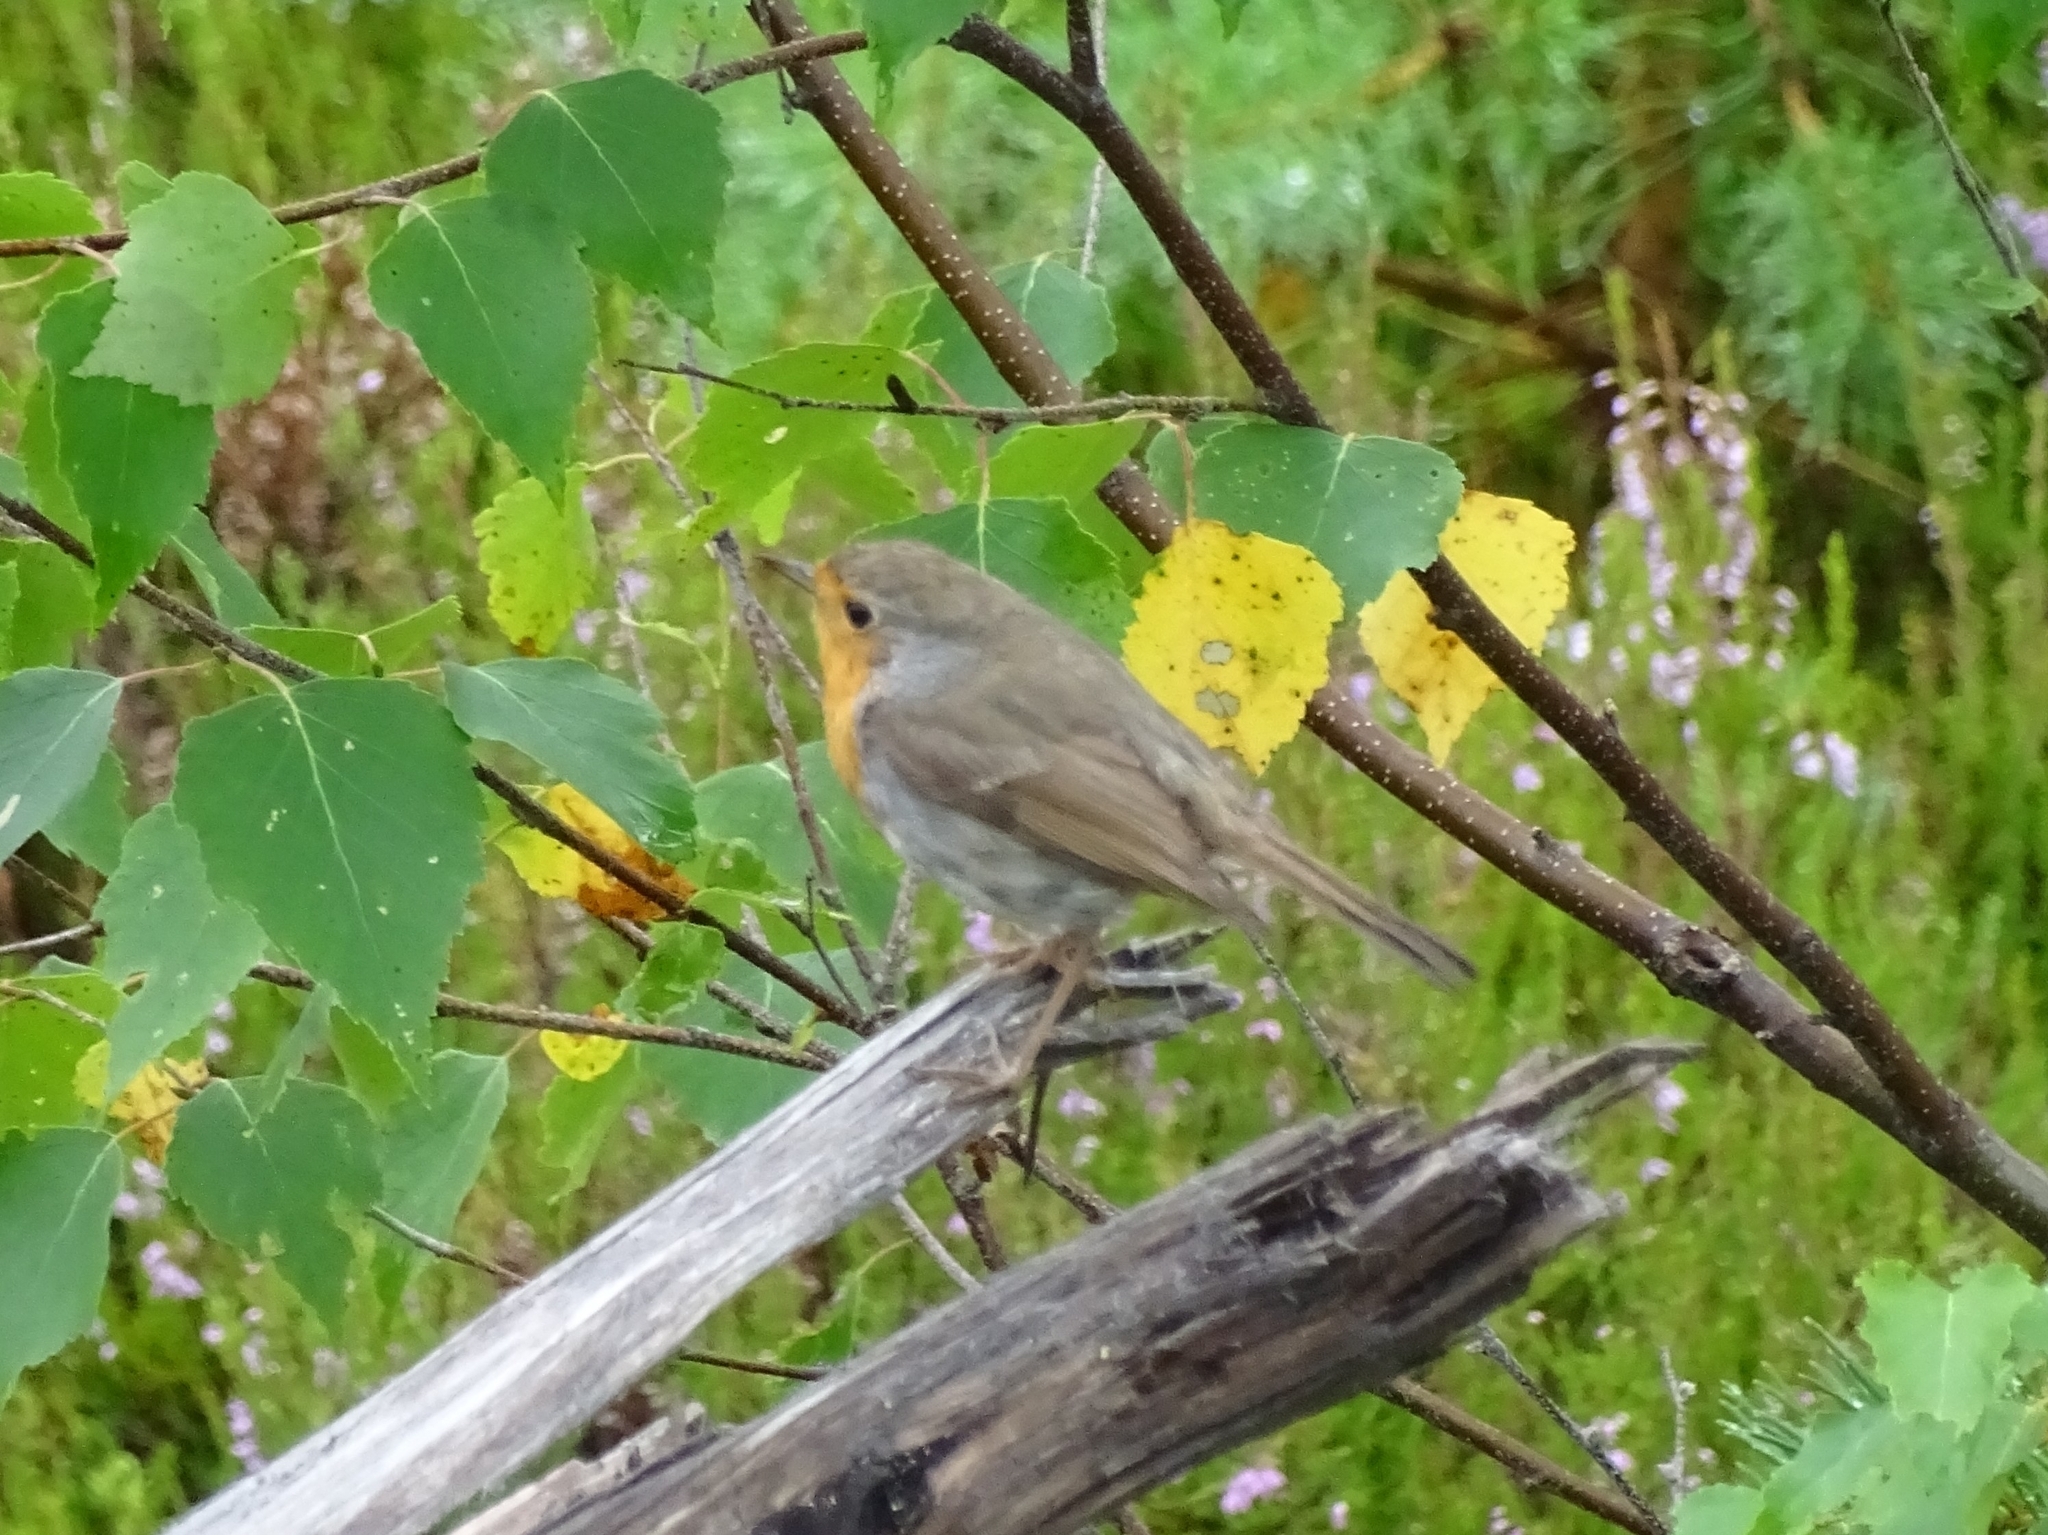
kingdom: Animalia
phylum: Chordata
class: Aves
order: Passeriformes
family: Muscicapidae
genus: Erithacus
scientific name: Erithacus rubecula
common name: European robin
